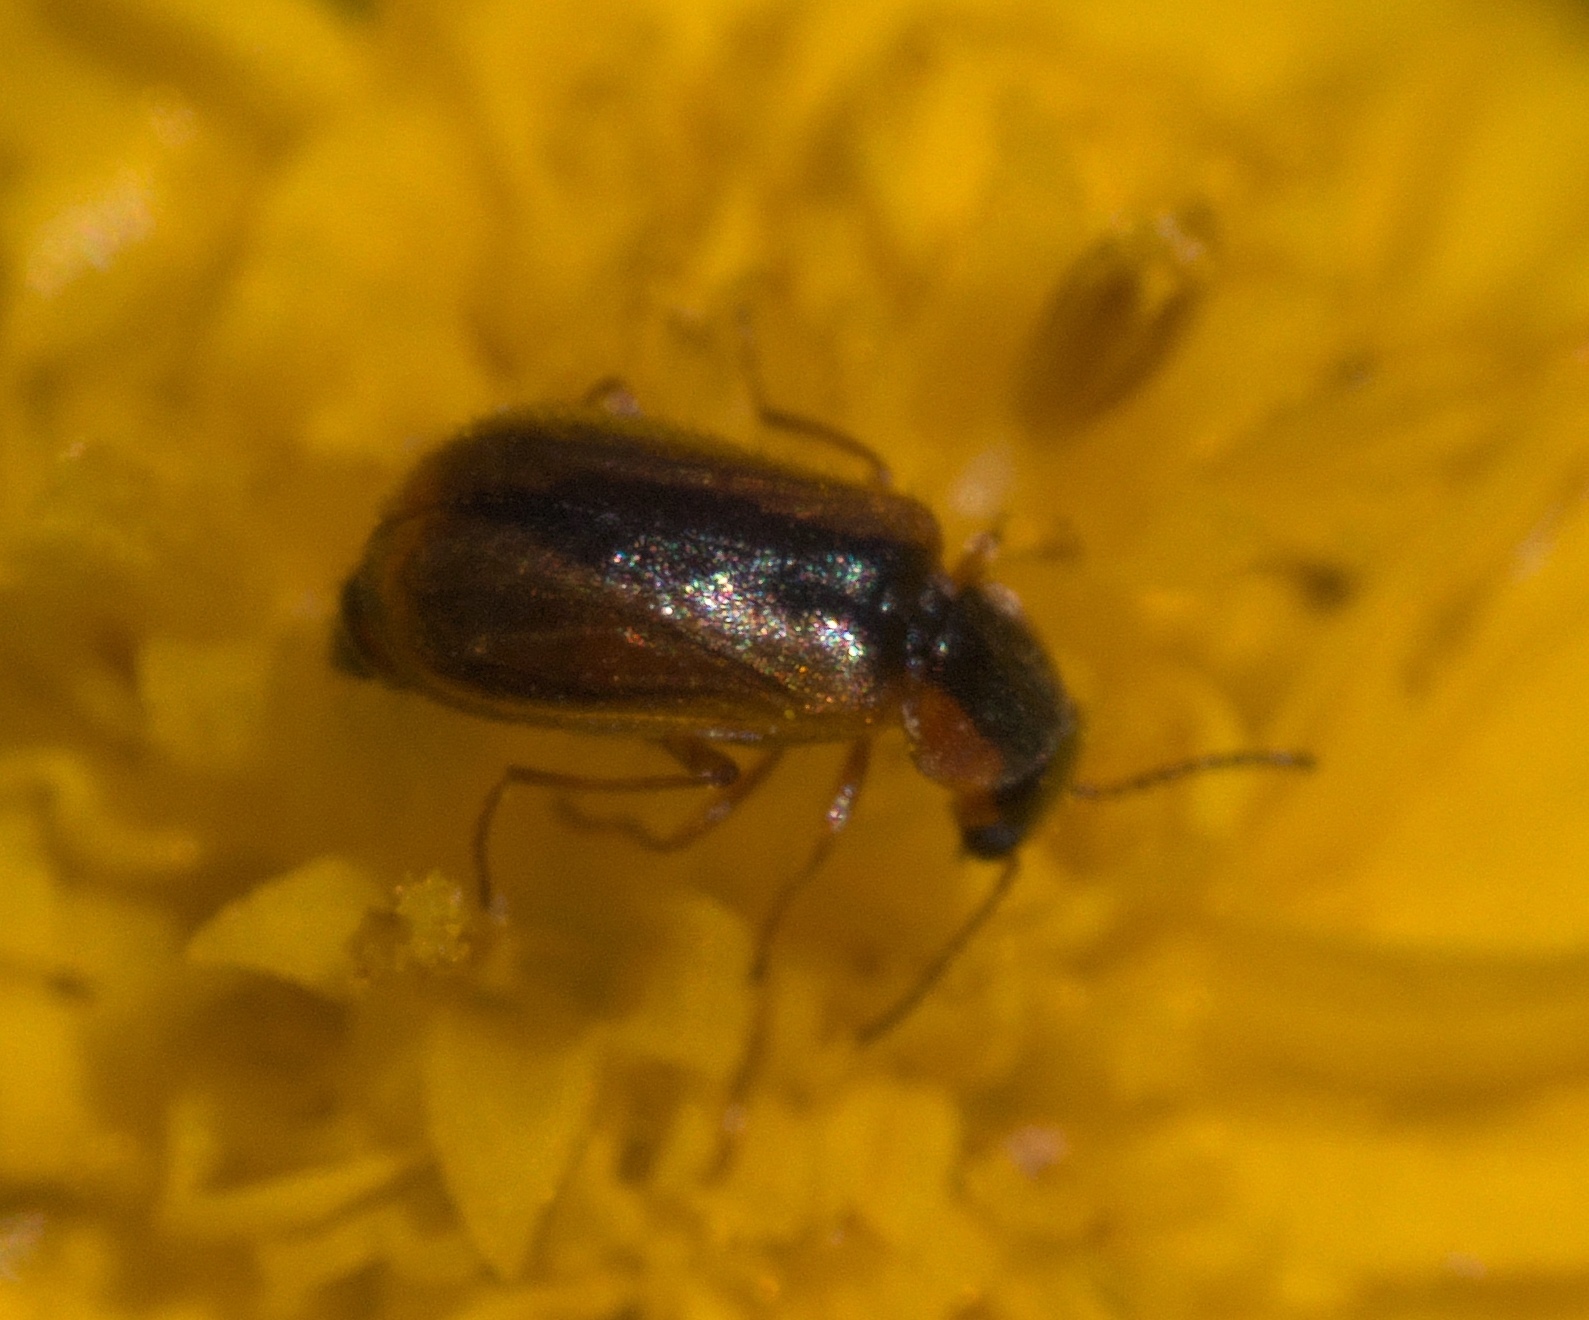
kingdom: Animalia
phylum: Arthropoda
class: Insecta
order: Coleoptera
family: Malachiidae
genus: Attalus
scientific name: Attalus
